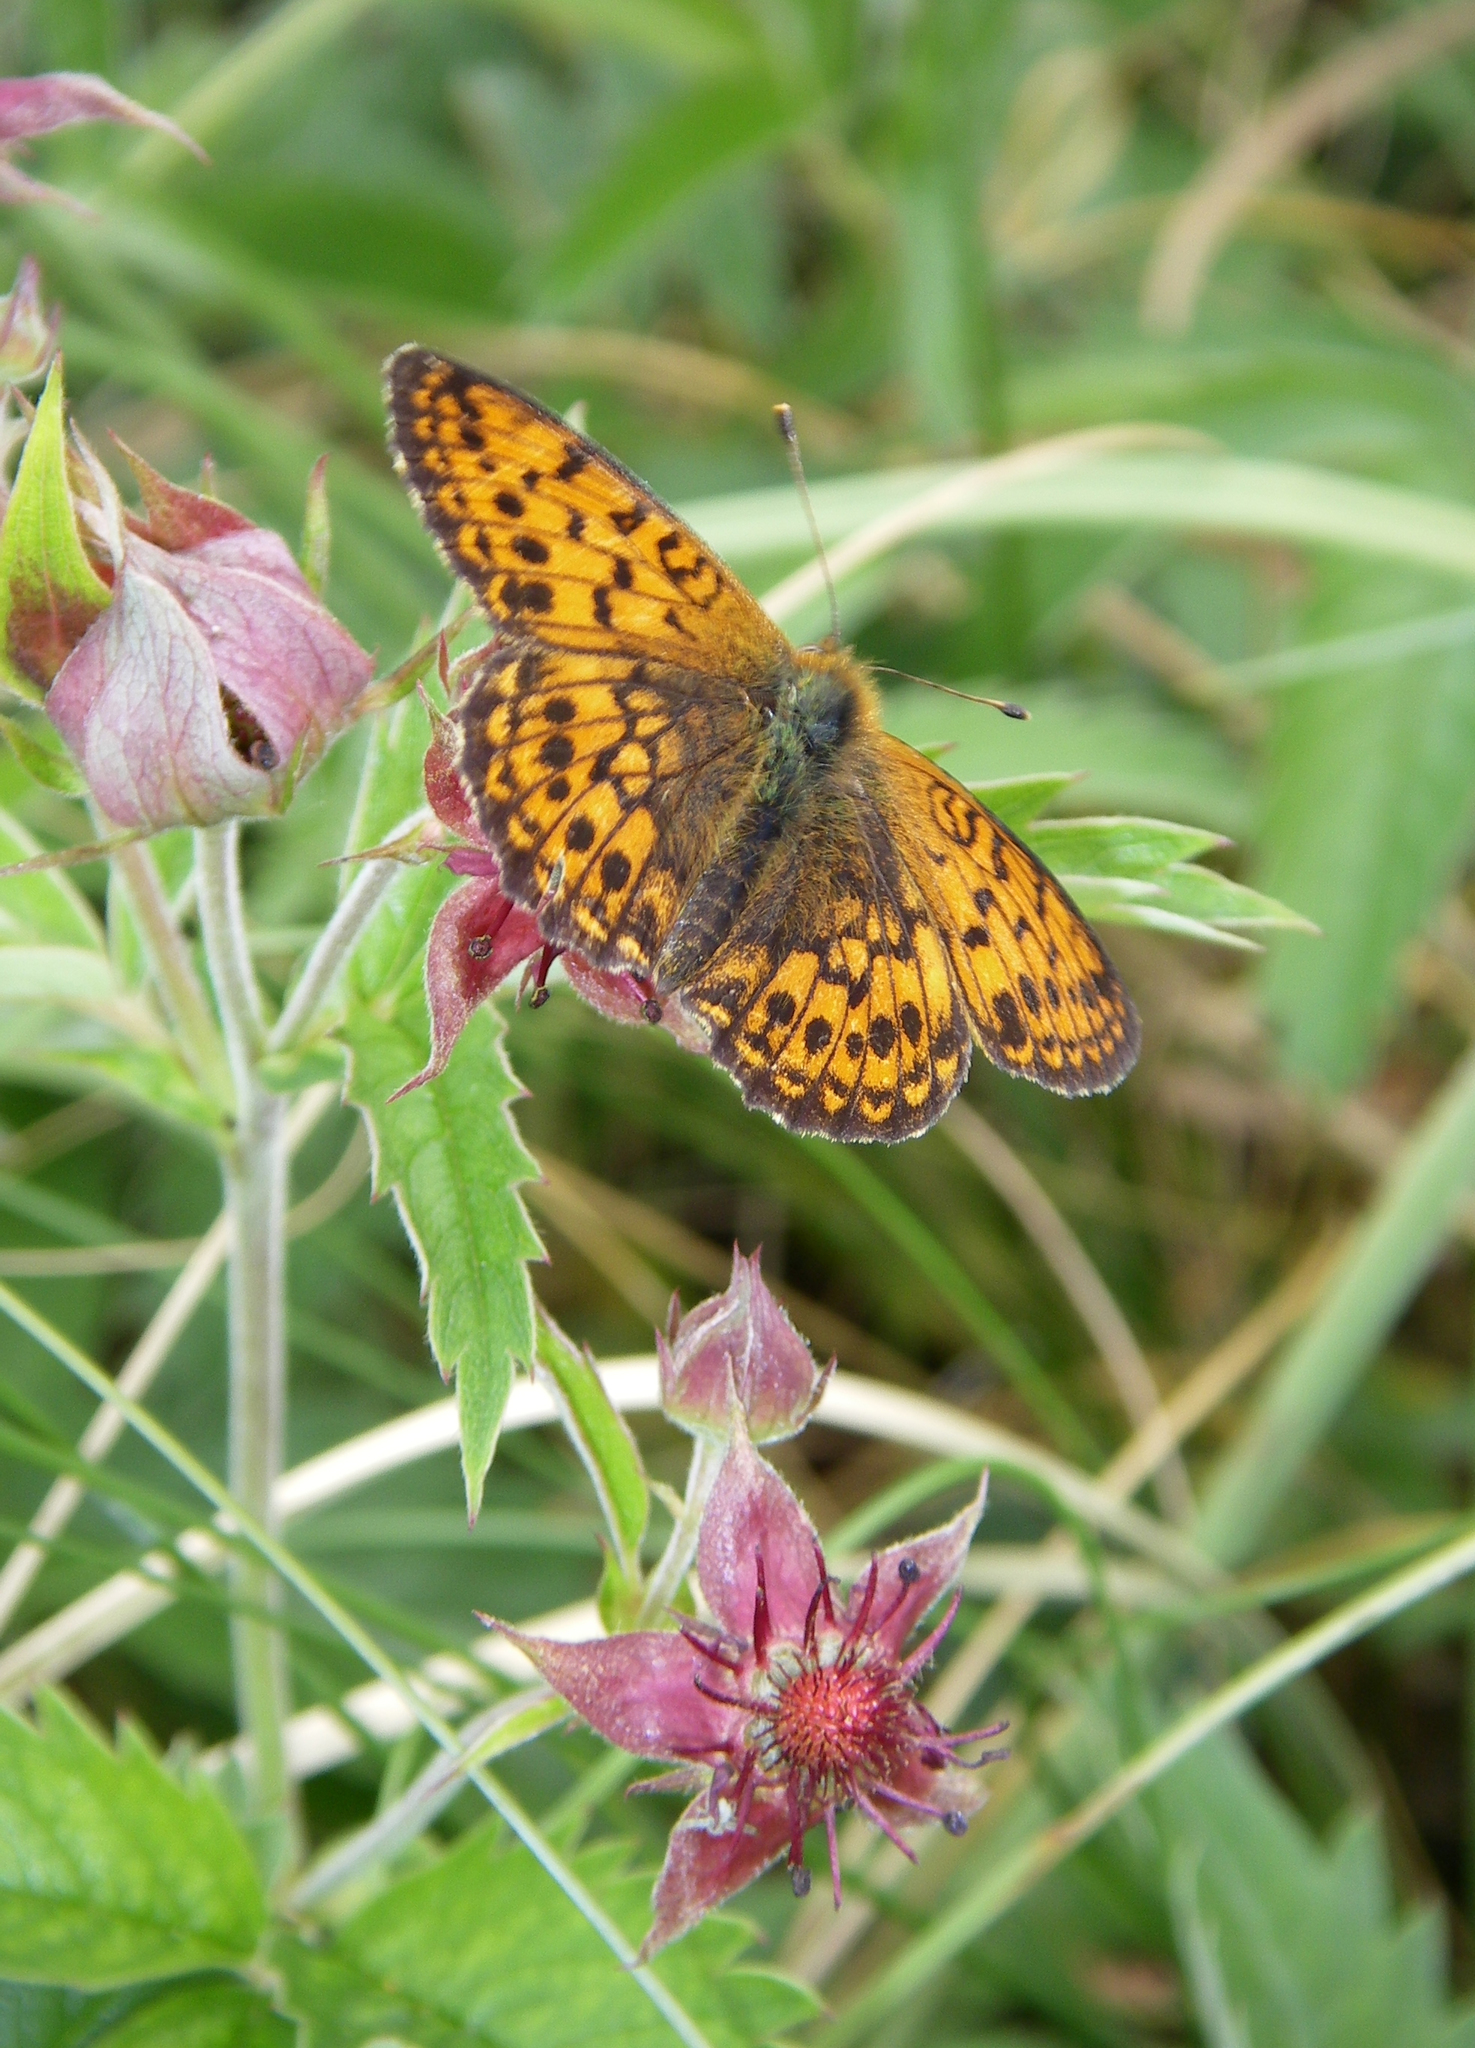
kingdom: Animalia
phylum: Arthropoda
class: Insecta
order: Lepidoptera
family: Nymphalidae
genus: Brenthis
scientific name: Brenthis ino
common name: Lesser marbled fritillary
